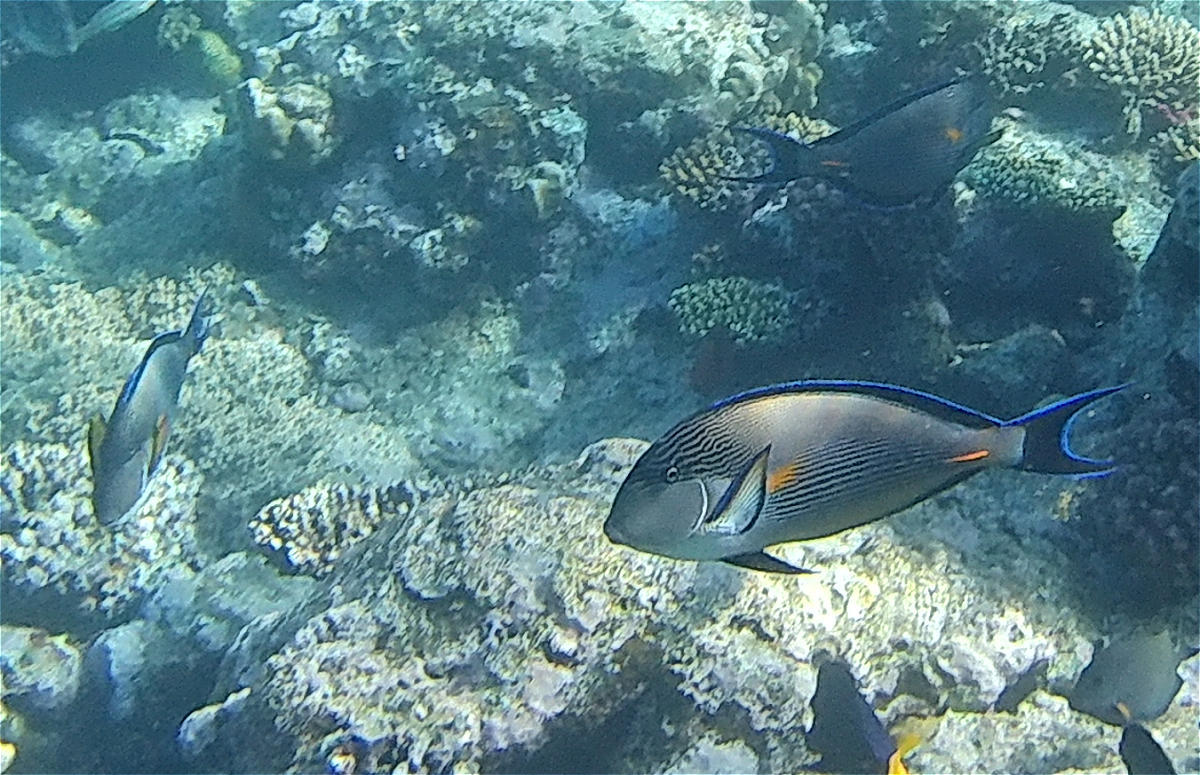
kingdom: Animalia
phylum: Chordata
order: Perciformes
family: Acanthuridae
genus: Acanthurus
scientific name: Acanthurus sohal
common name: Red sea surgeonfish
